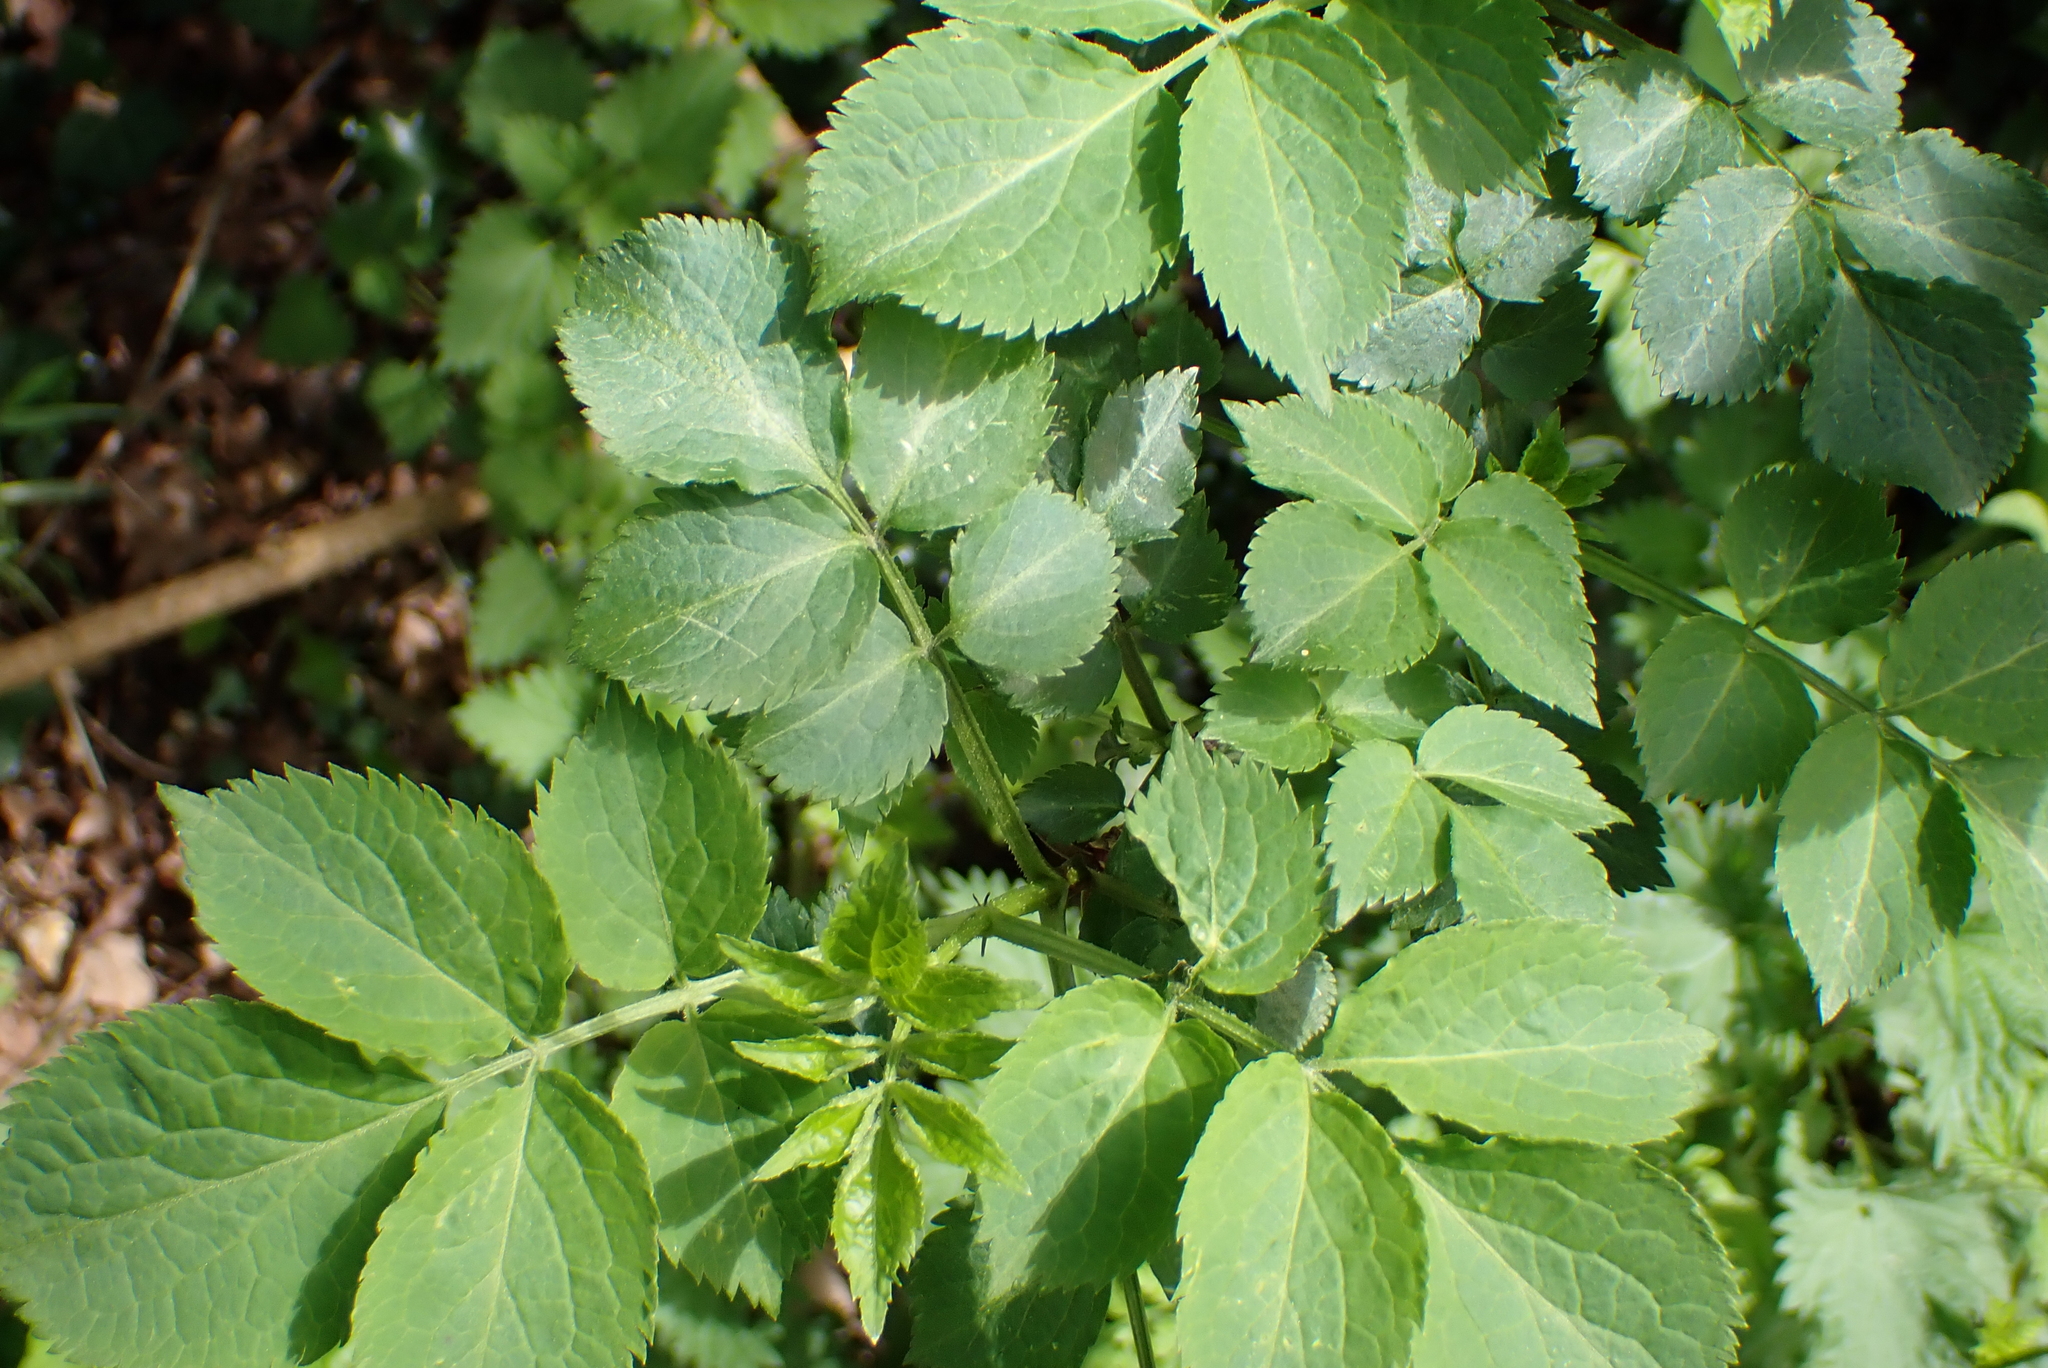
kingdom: Plantae
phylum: Tracheophyta
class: Magnoliopsida
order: Dipsacales
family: Viburnaceae
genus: Sambucus
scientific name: Sambucus nigra
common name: Elder
